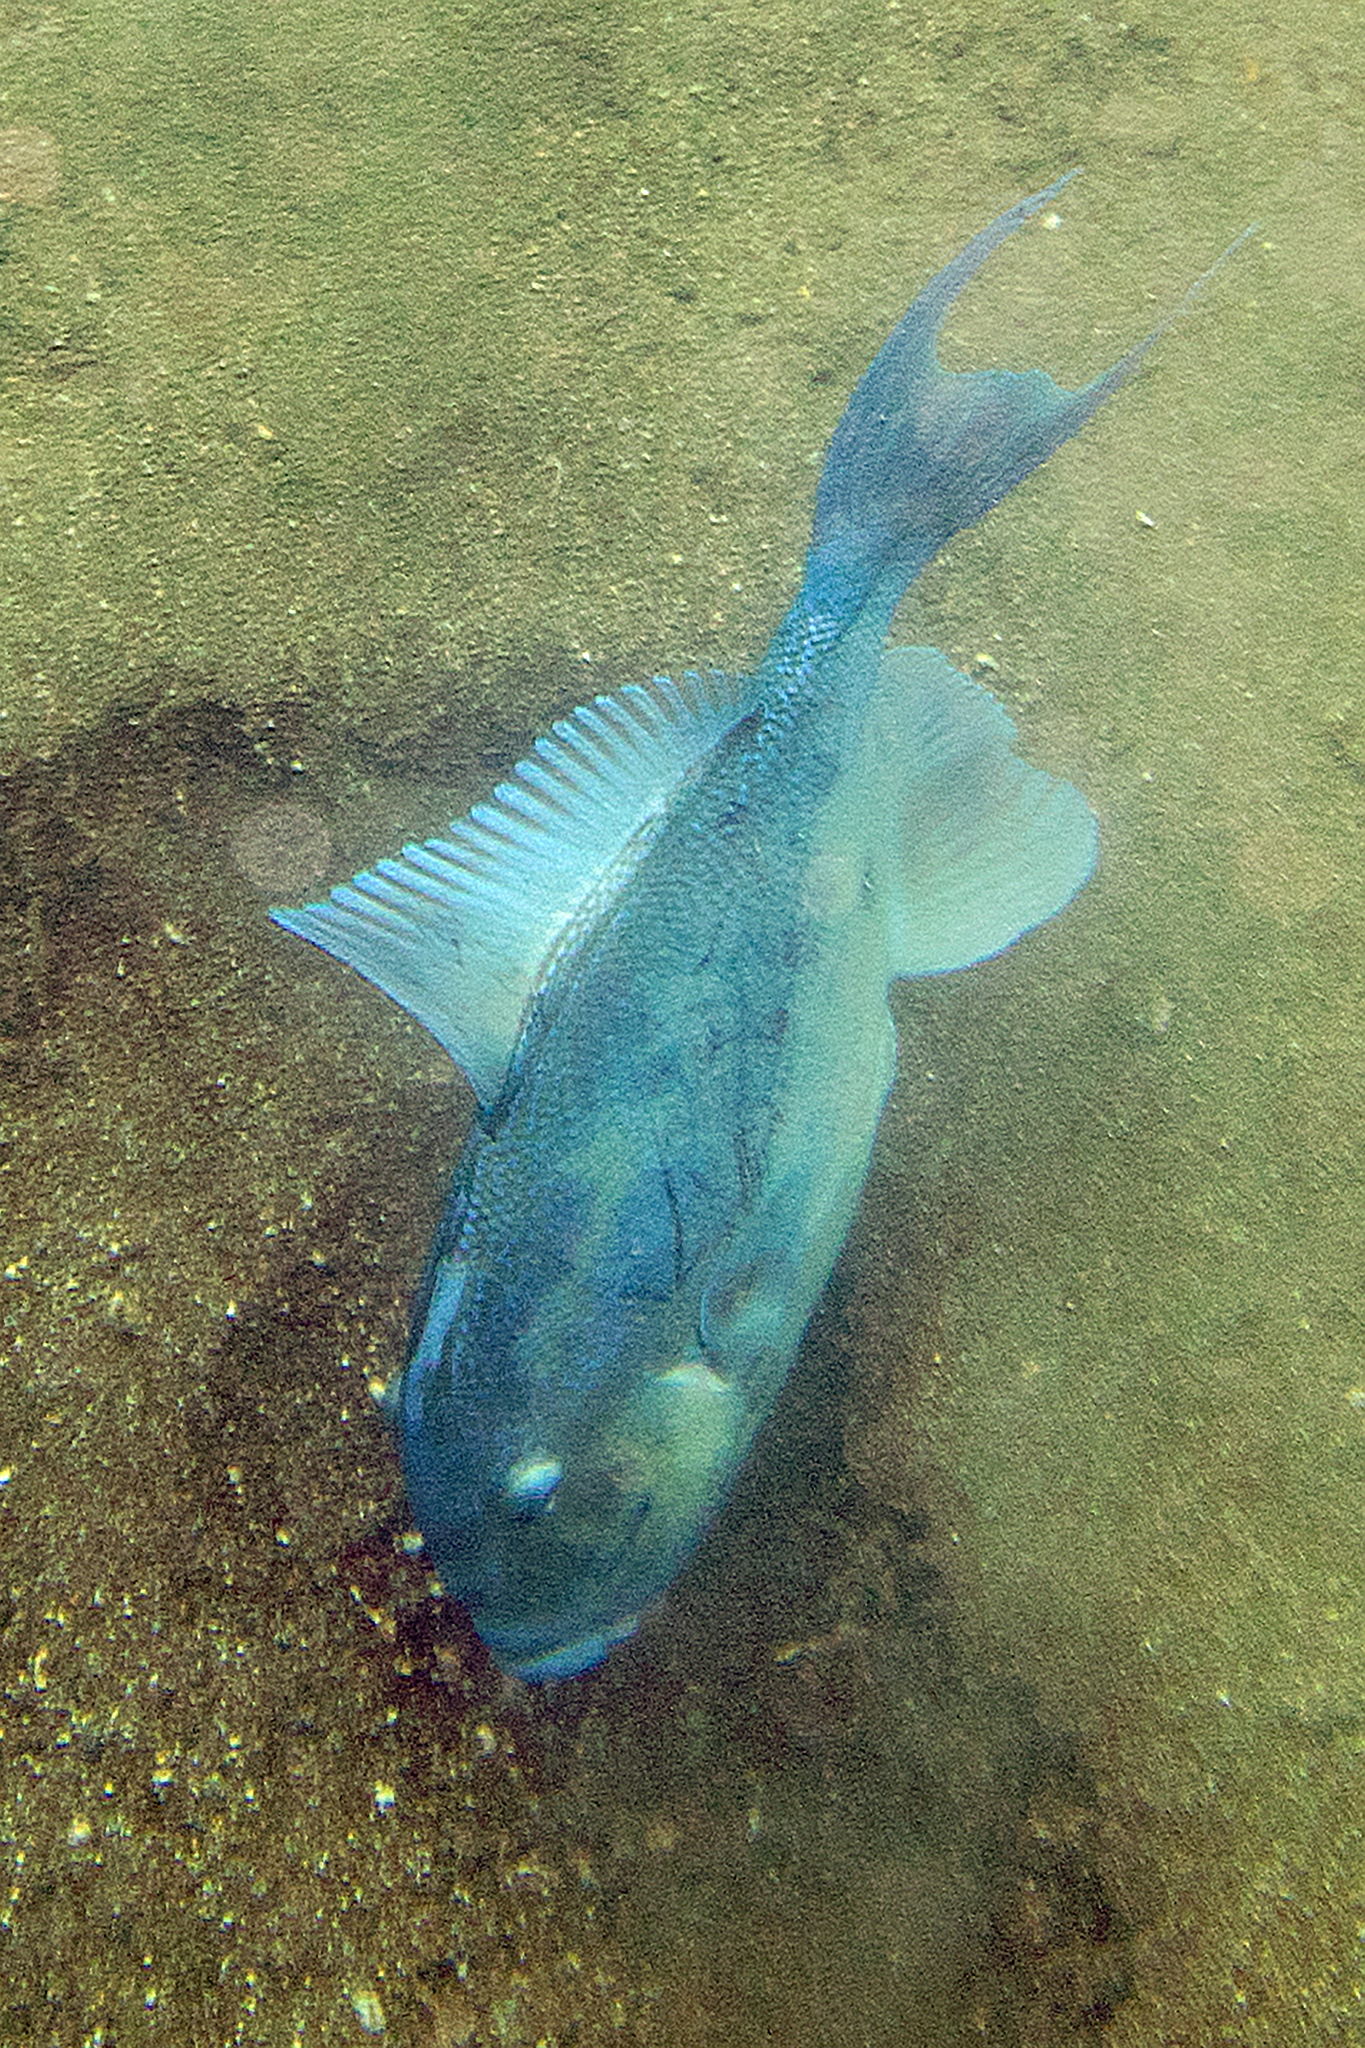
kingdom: Animalia
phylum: Chordata
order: Tetraodontiformes
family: Balistidae
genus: Balistes
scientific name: Balistes polylepis
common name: Finescale triggerfish
